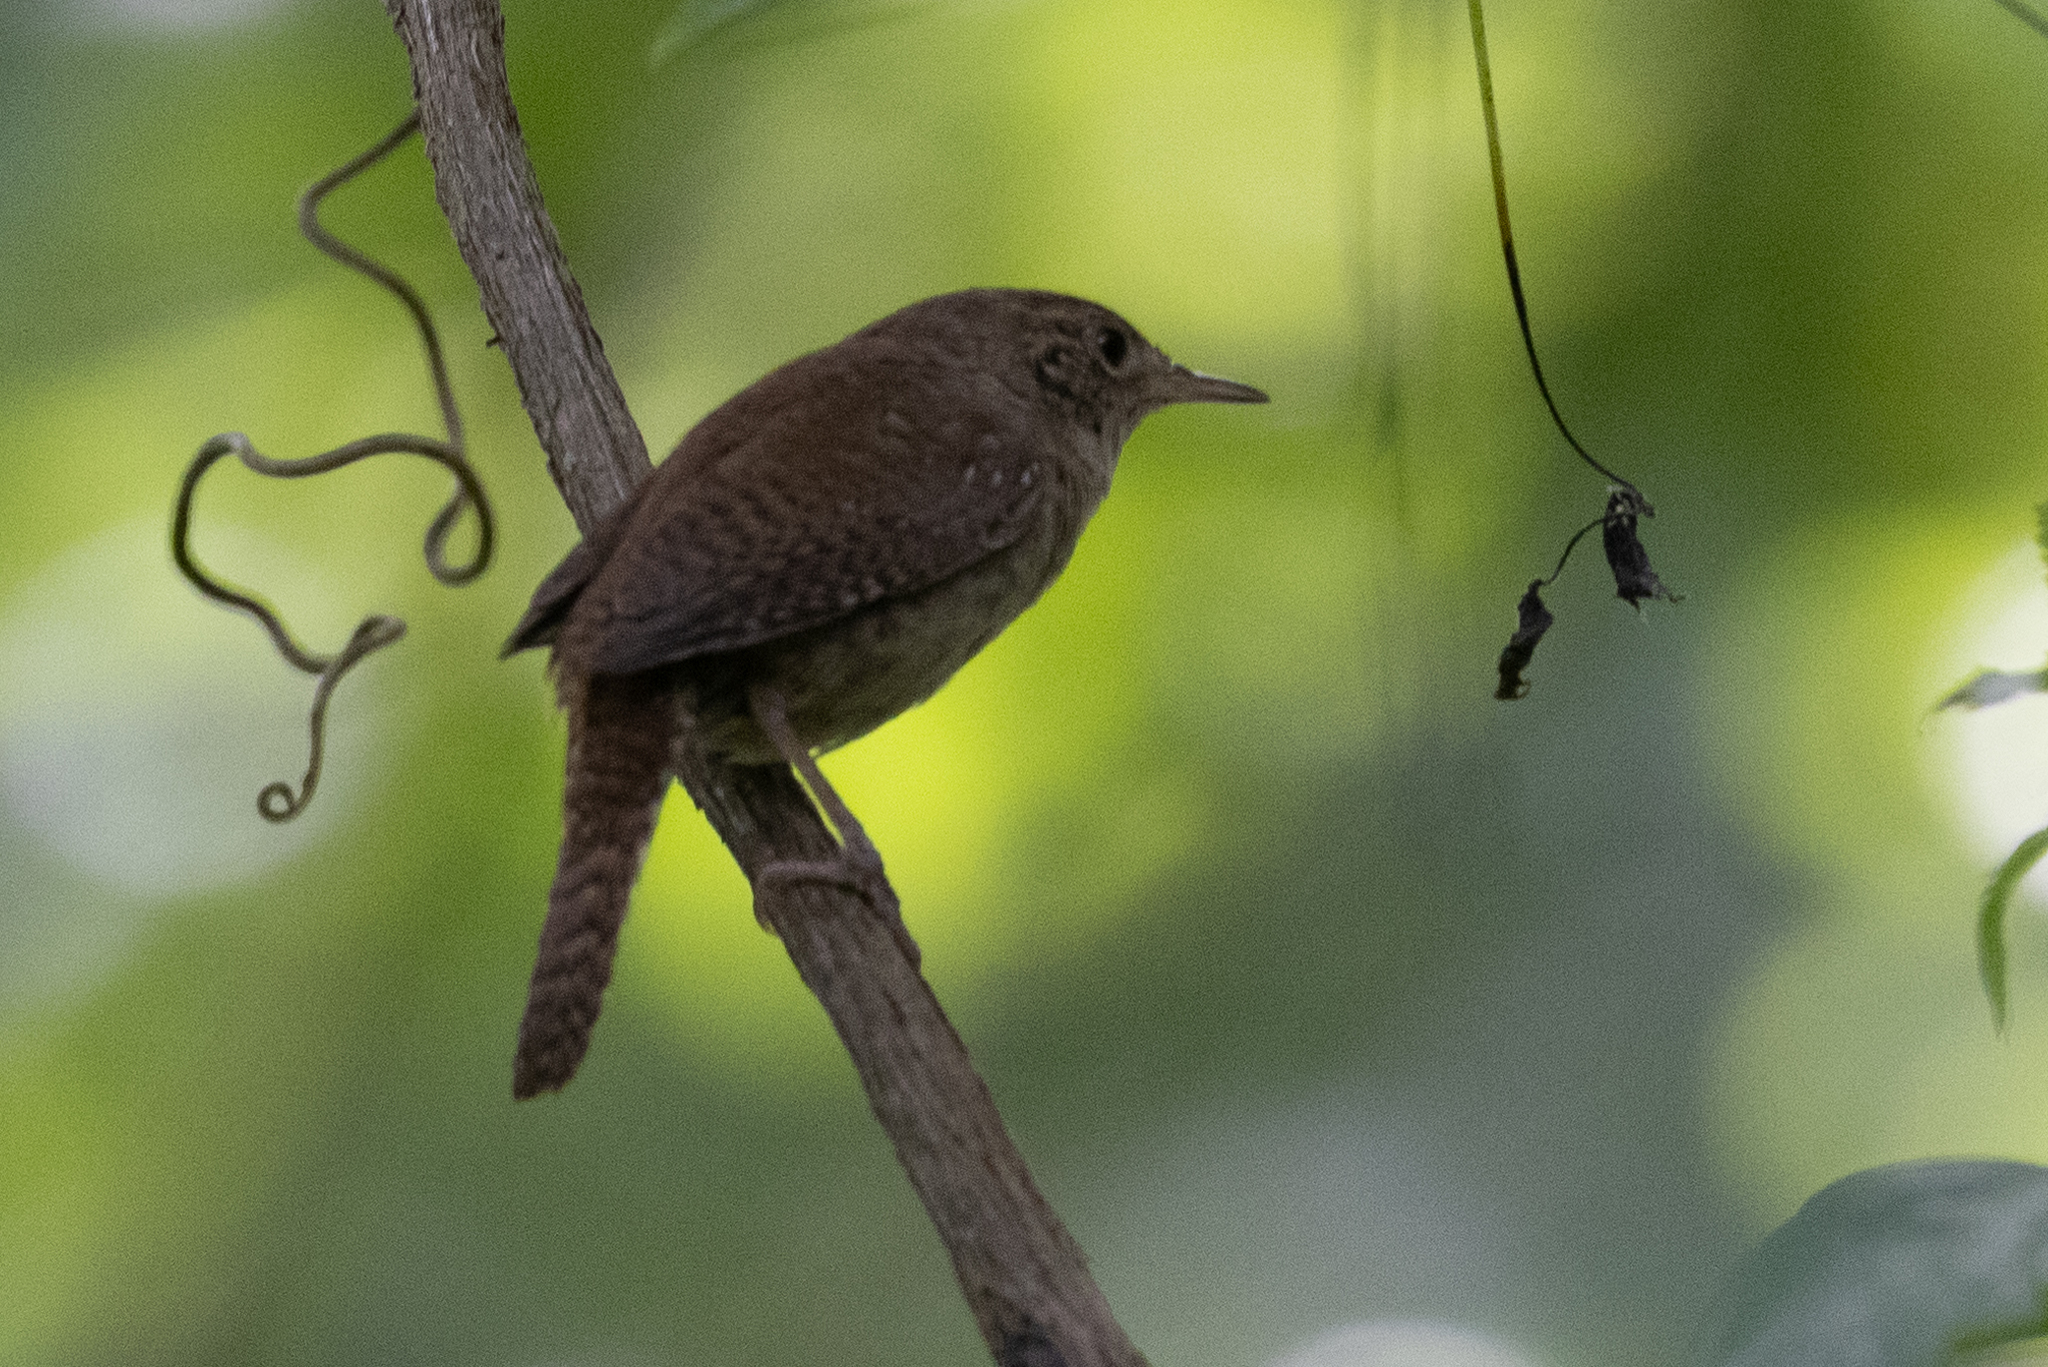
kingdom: Animalia
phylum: Chordata
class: Aves
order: Passeriformes
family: Troglodytidae
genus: Troglodytes
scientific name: Troglodytes aedon
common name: House wren
